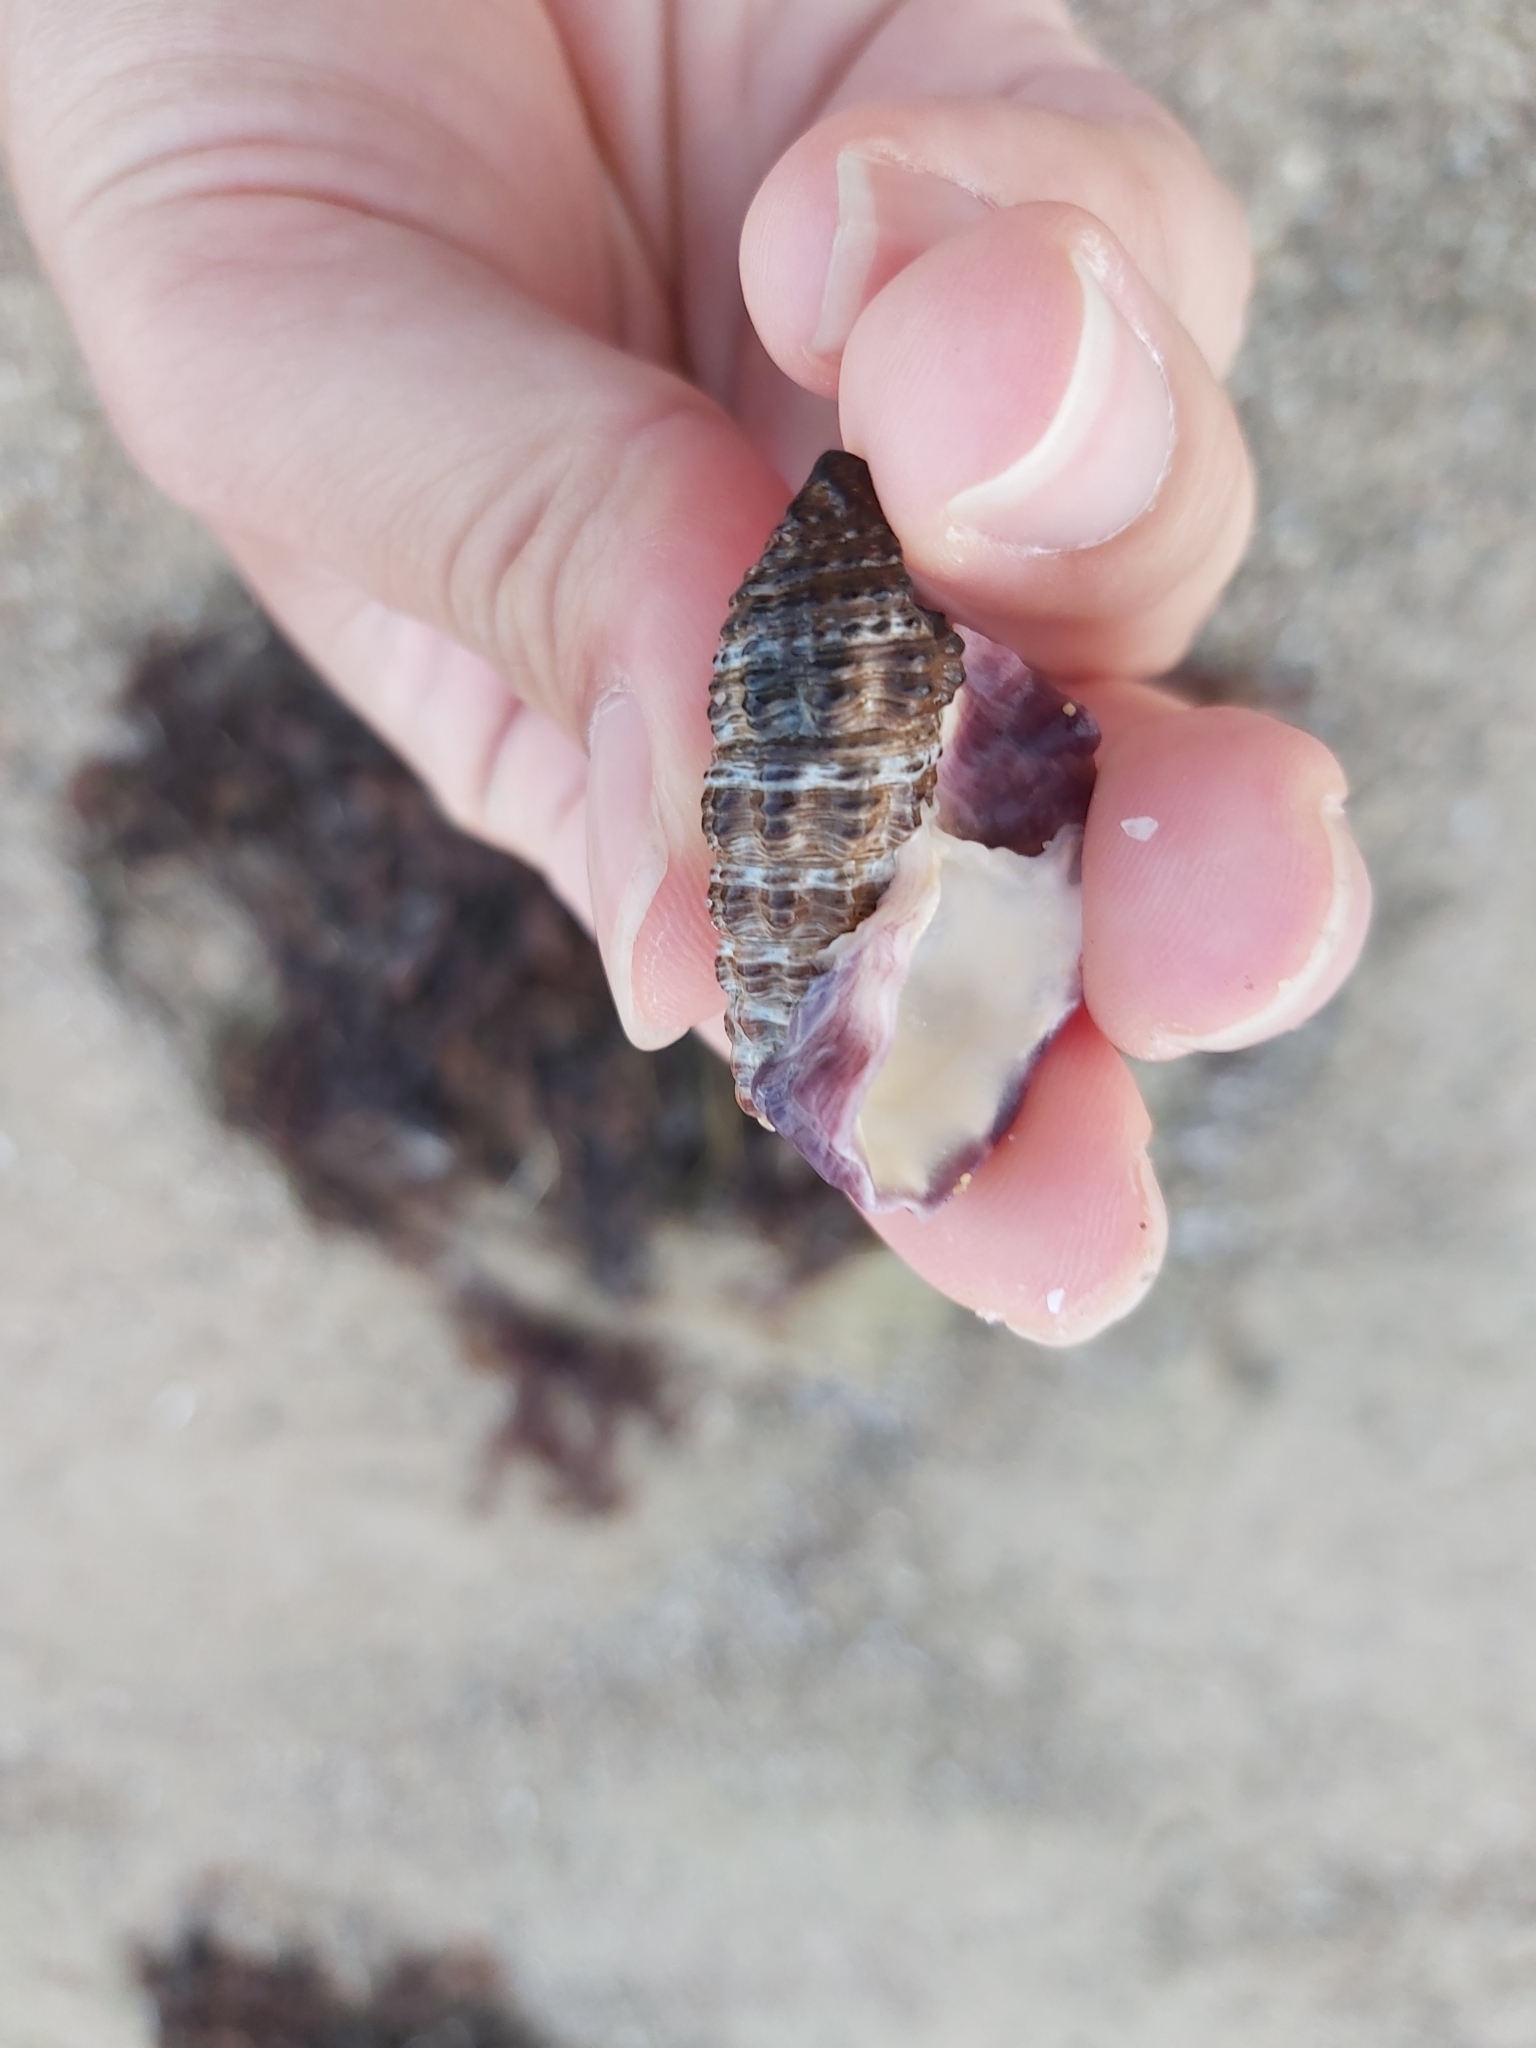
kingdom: Animalia
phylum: Mollusca
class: Gastropoda
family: Batillariidae
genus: Batillaria
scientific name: Batillaria australis
